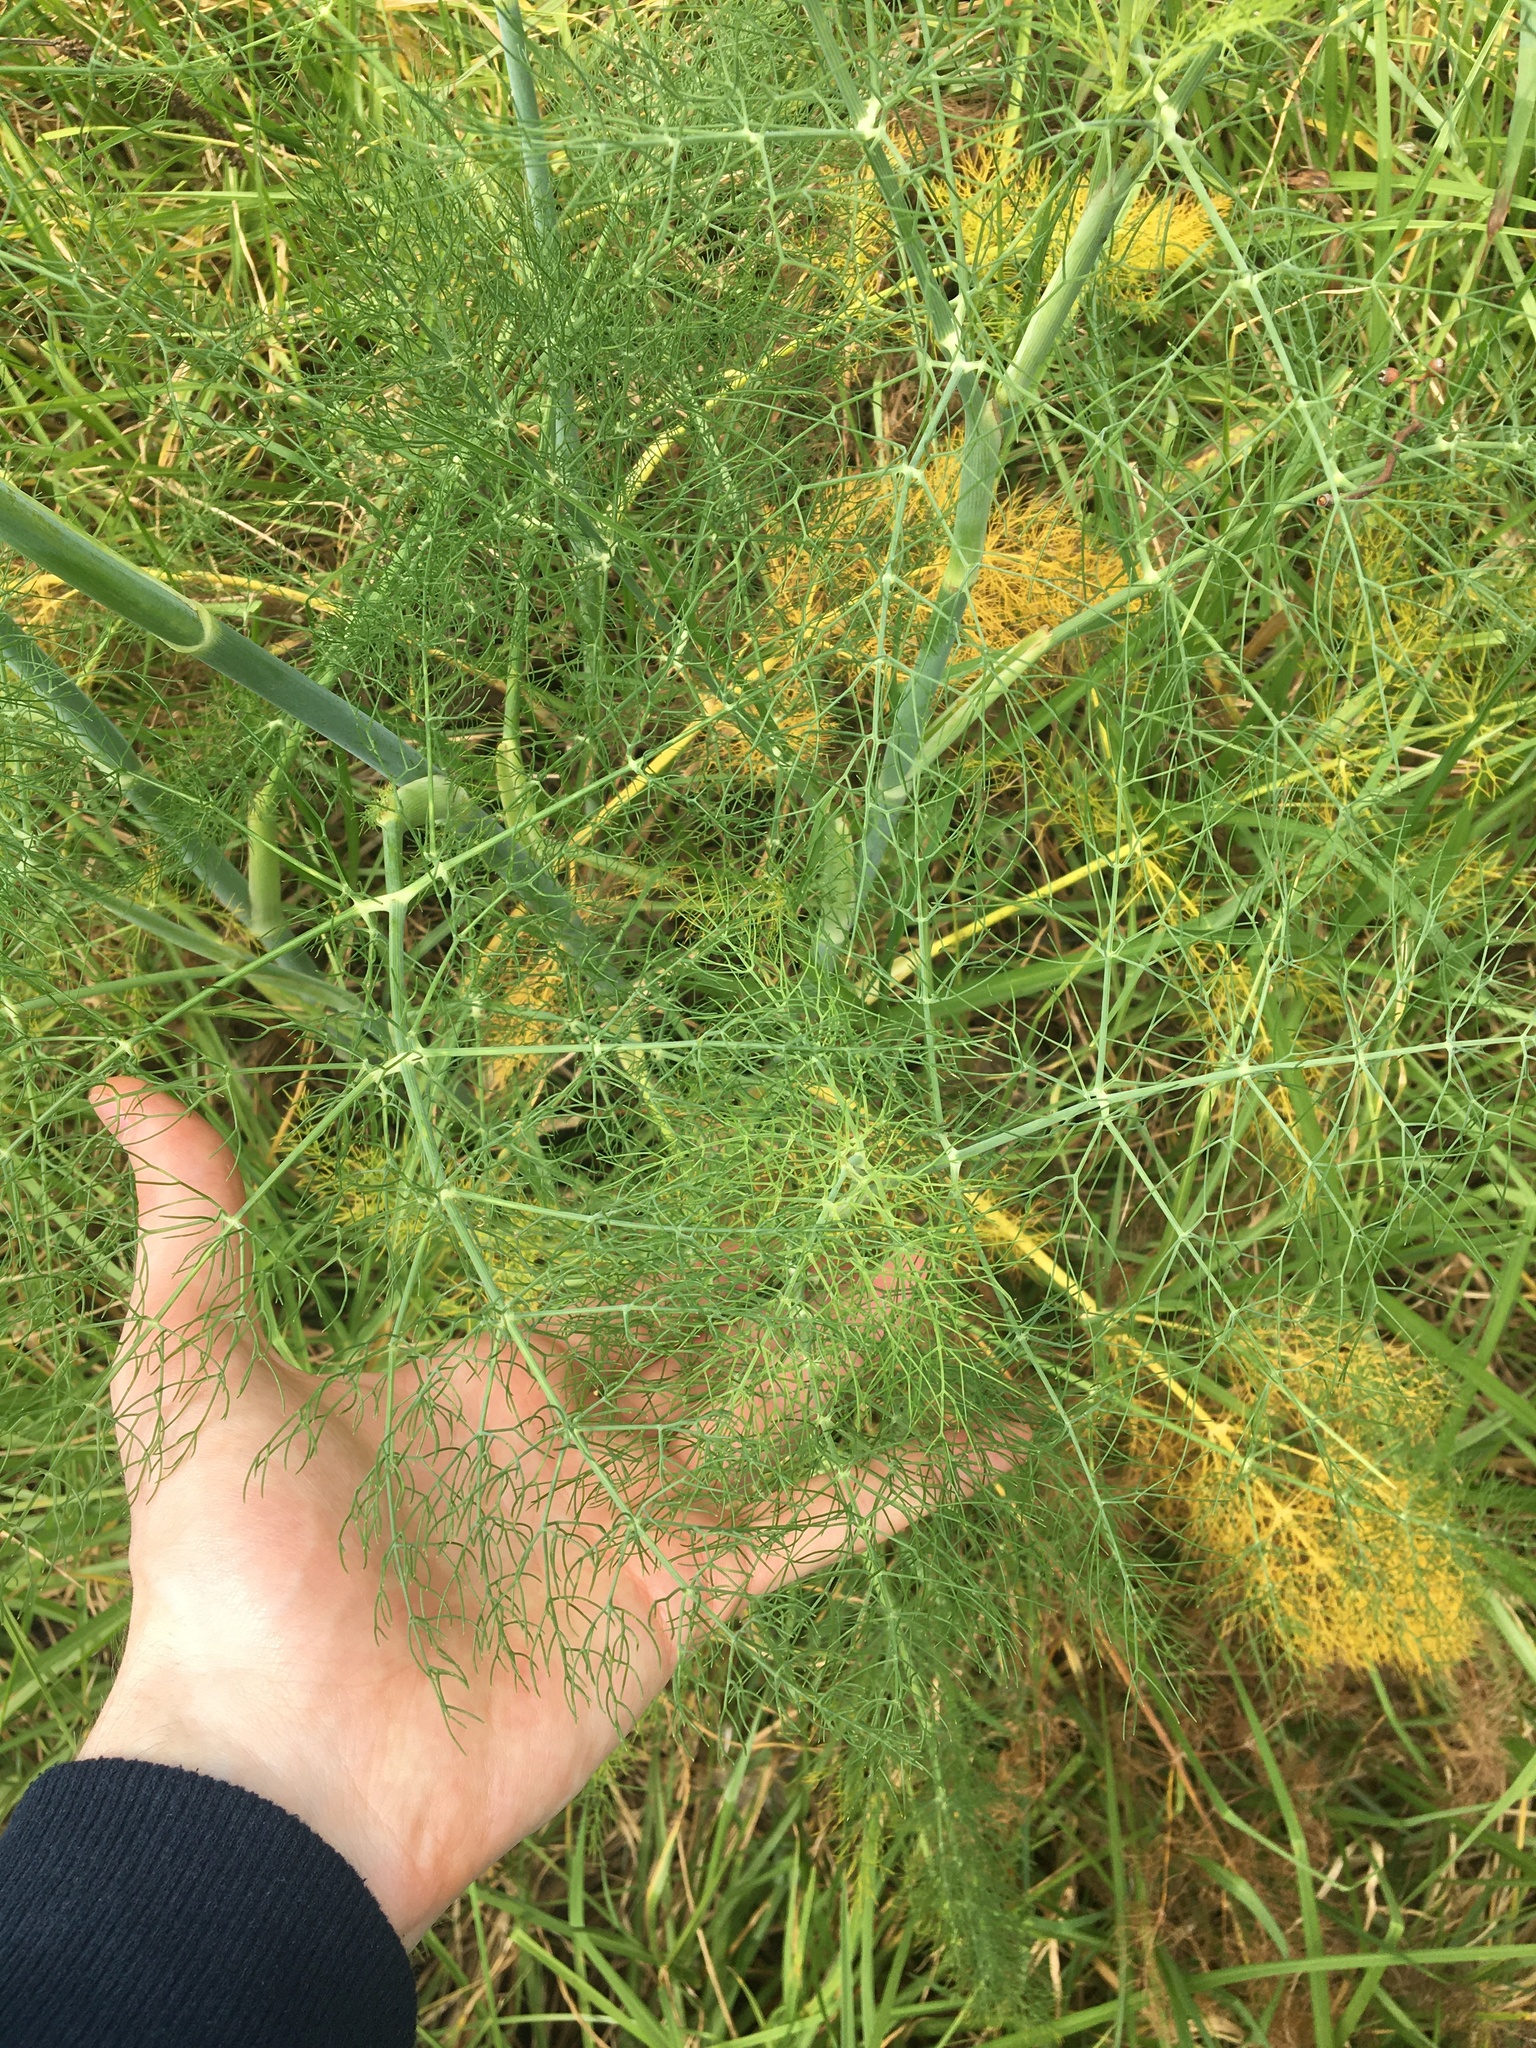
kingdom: Plantae
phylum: Tracheophyta
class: Magnoliopsida
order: Apiales
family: Apiaceae
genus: Foeniculum
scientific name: Foeniculum vulgare
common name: Fennel
